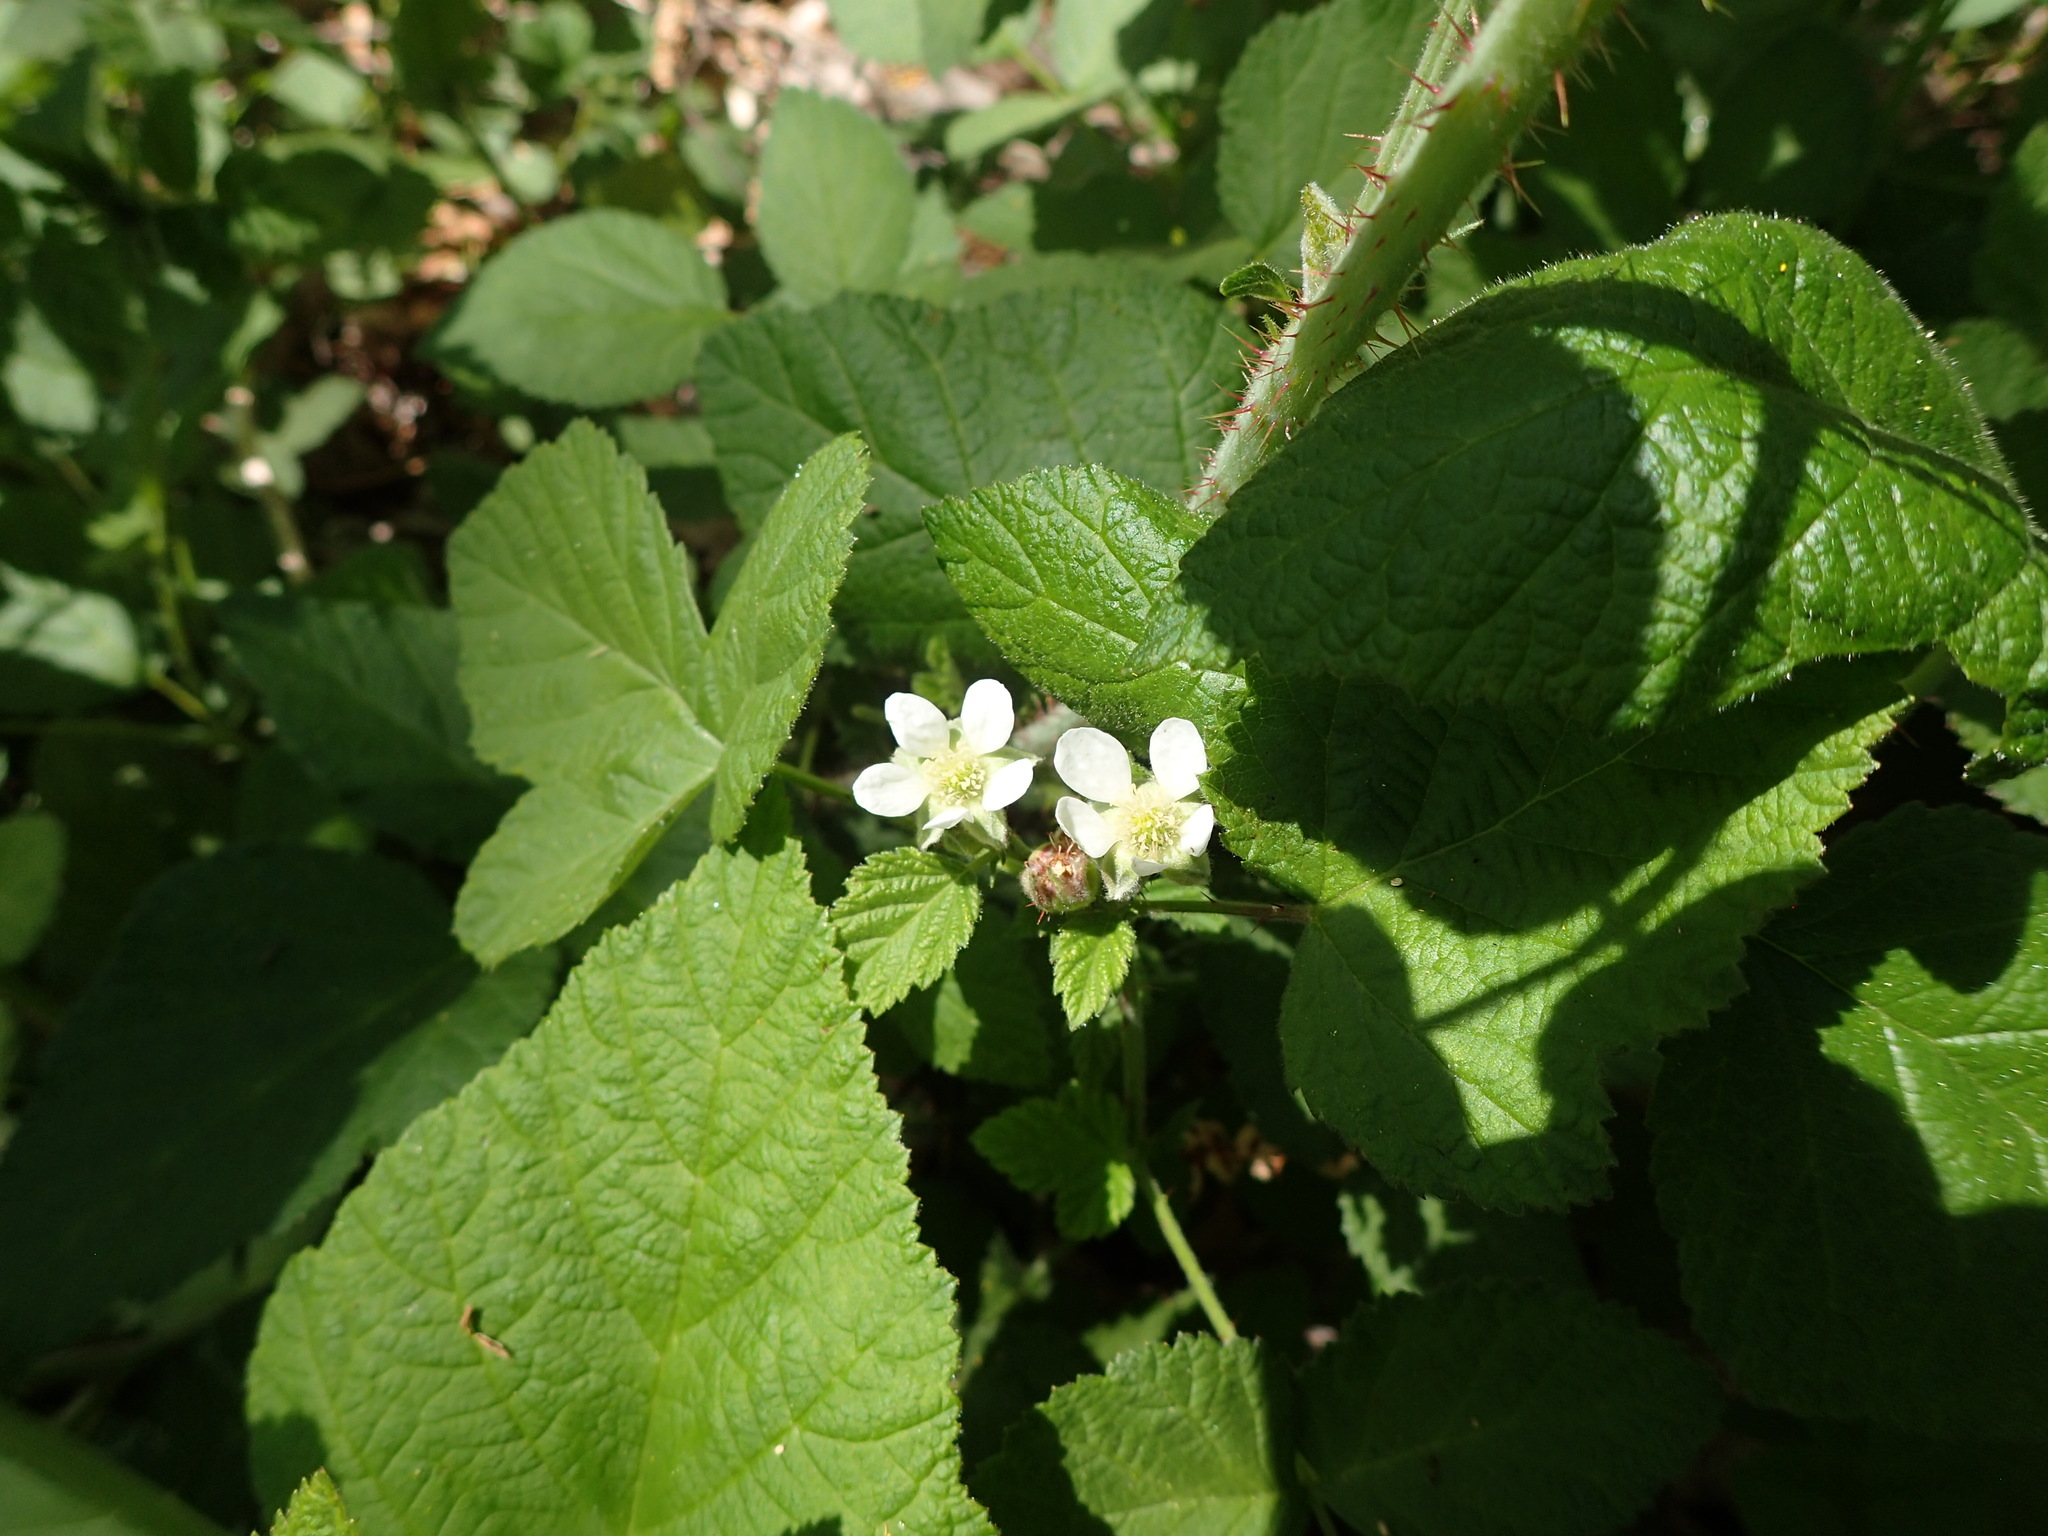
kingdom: Plantae
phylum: Tracheophyta
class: Magnoliopsida
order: Rosales
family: Rosaceae
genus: Rubus
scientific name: Rubus ursinus
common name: Pacific blackberry
